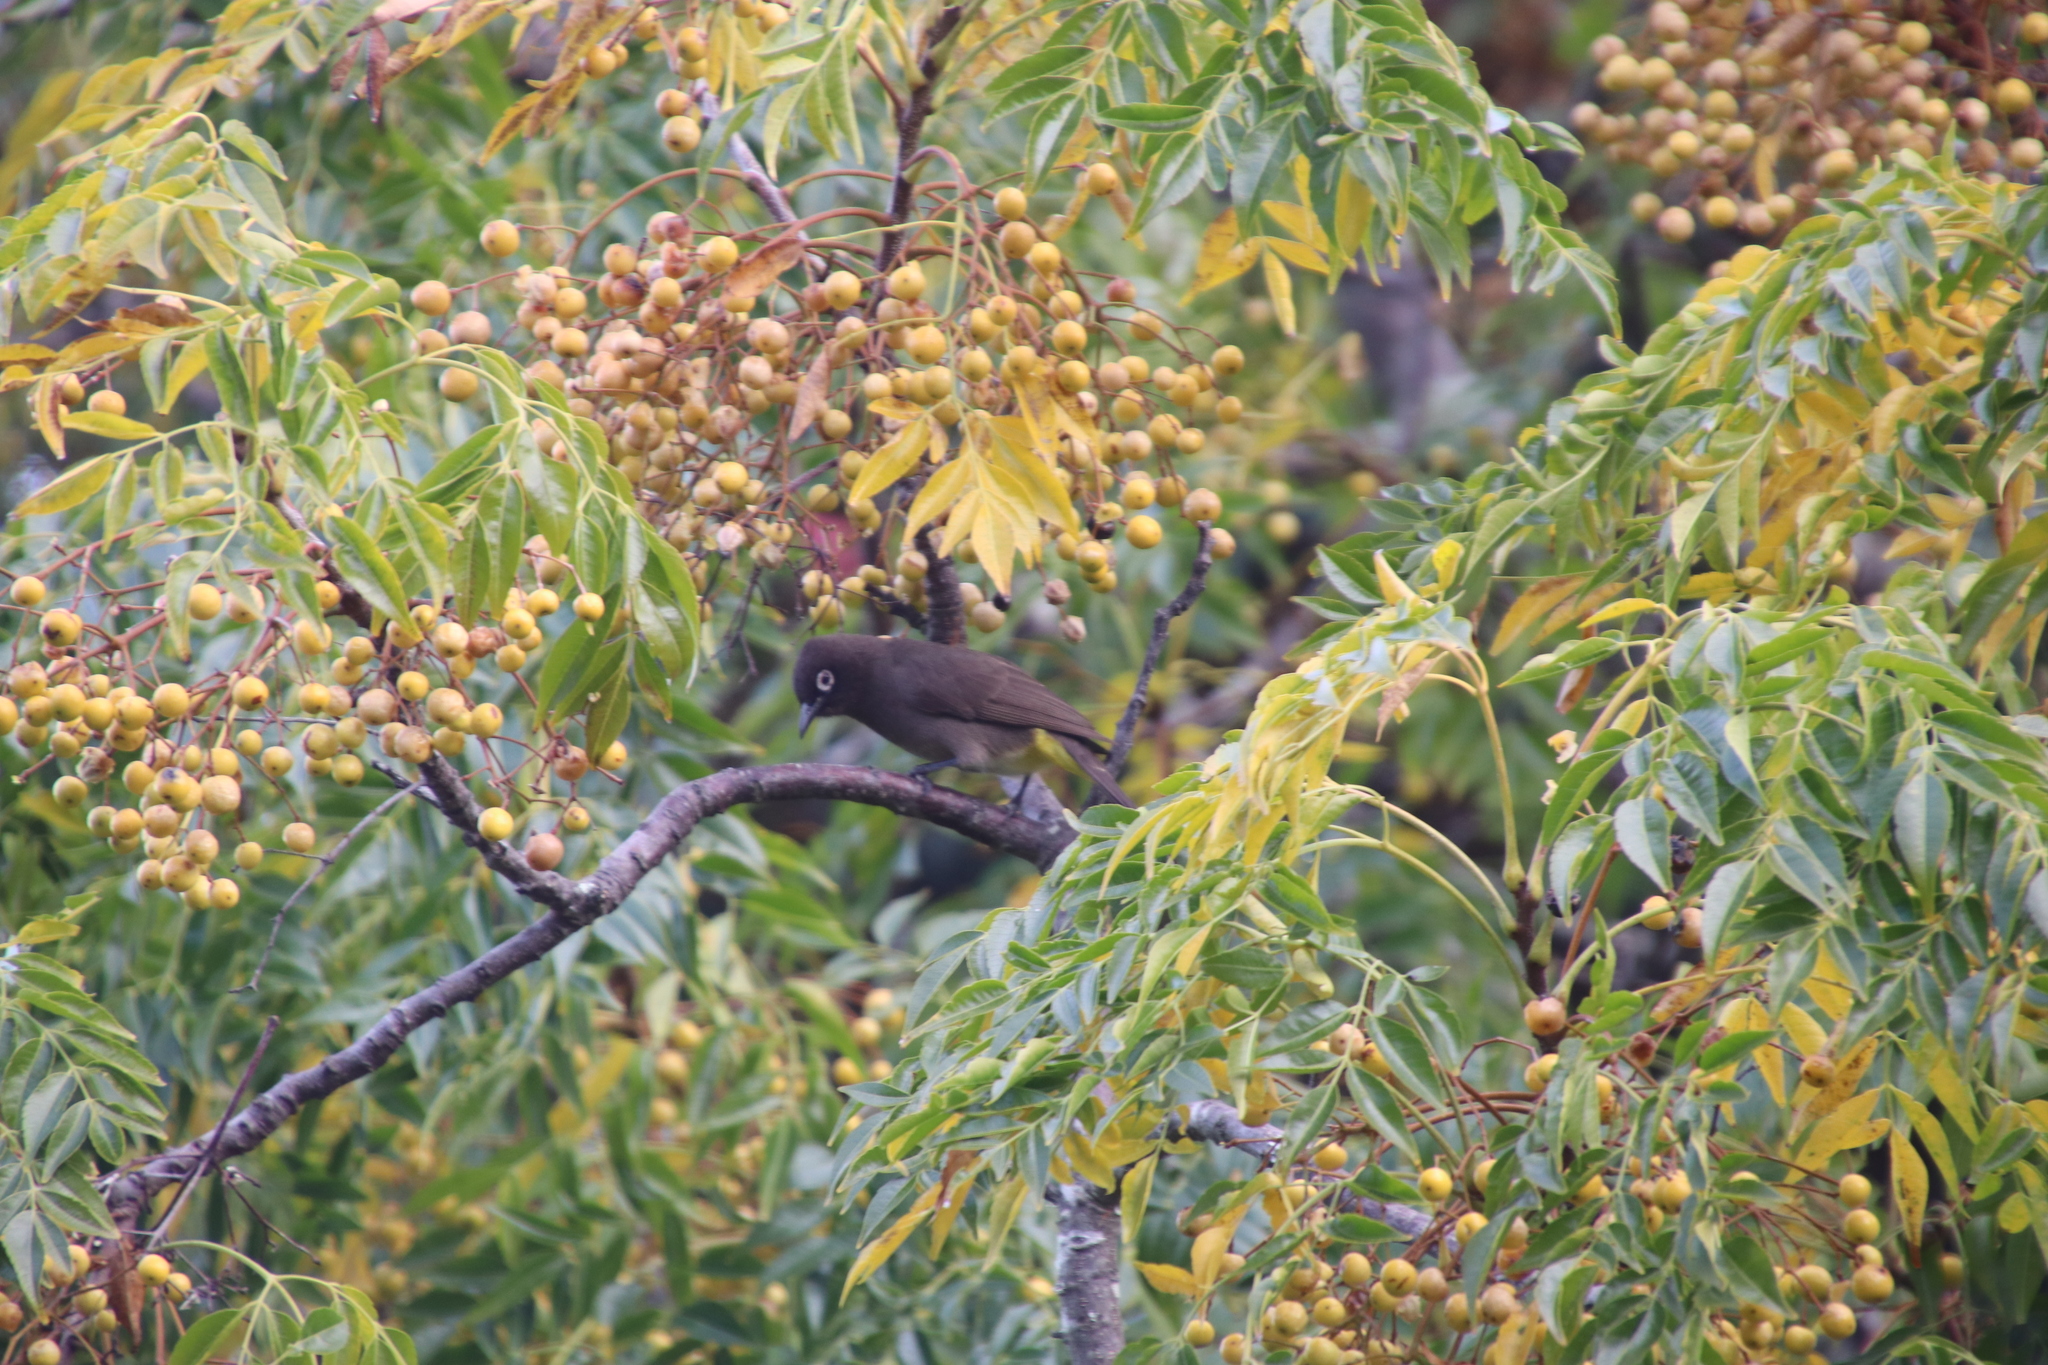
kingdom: Animalia
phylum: Chordata
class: Aves
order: Passeriformes
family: Pycnonotidae
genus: Pycnonotus
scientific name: Pycnonotus capensis
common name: Cape bulbul
